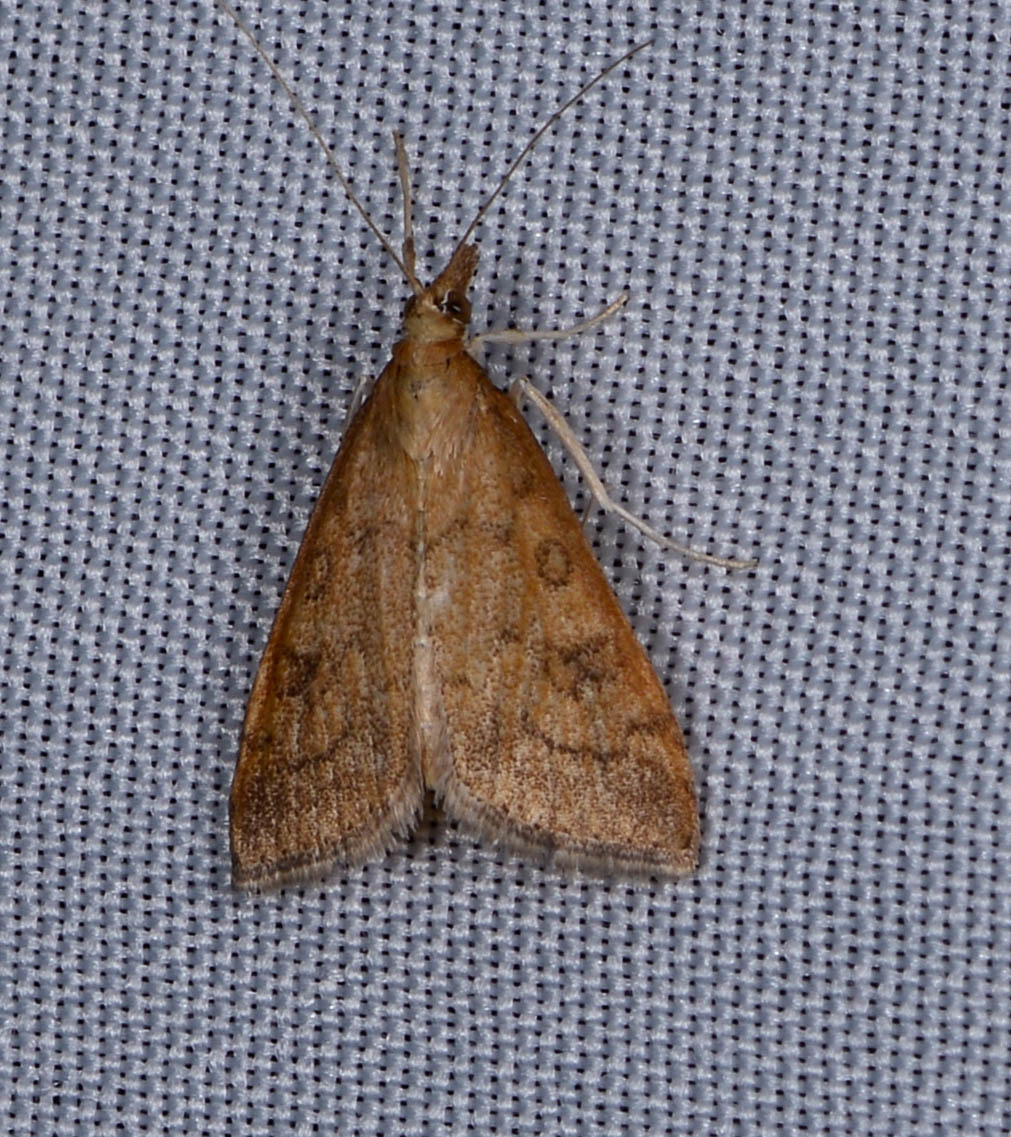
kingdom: Animalia
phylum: Arthropoda
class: Insecta
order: Lepidoptera
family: Crambidae
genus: Udea
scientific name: Udea rubigalis
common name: Celery leaftier moth
